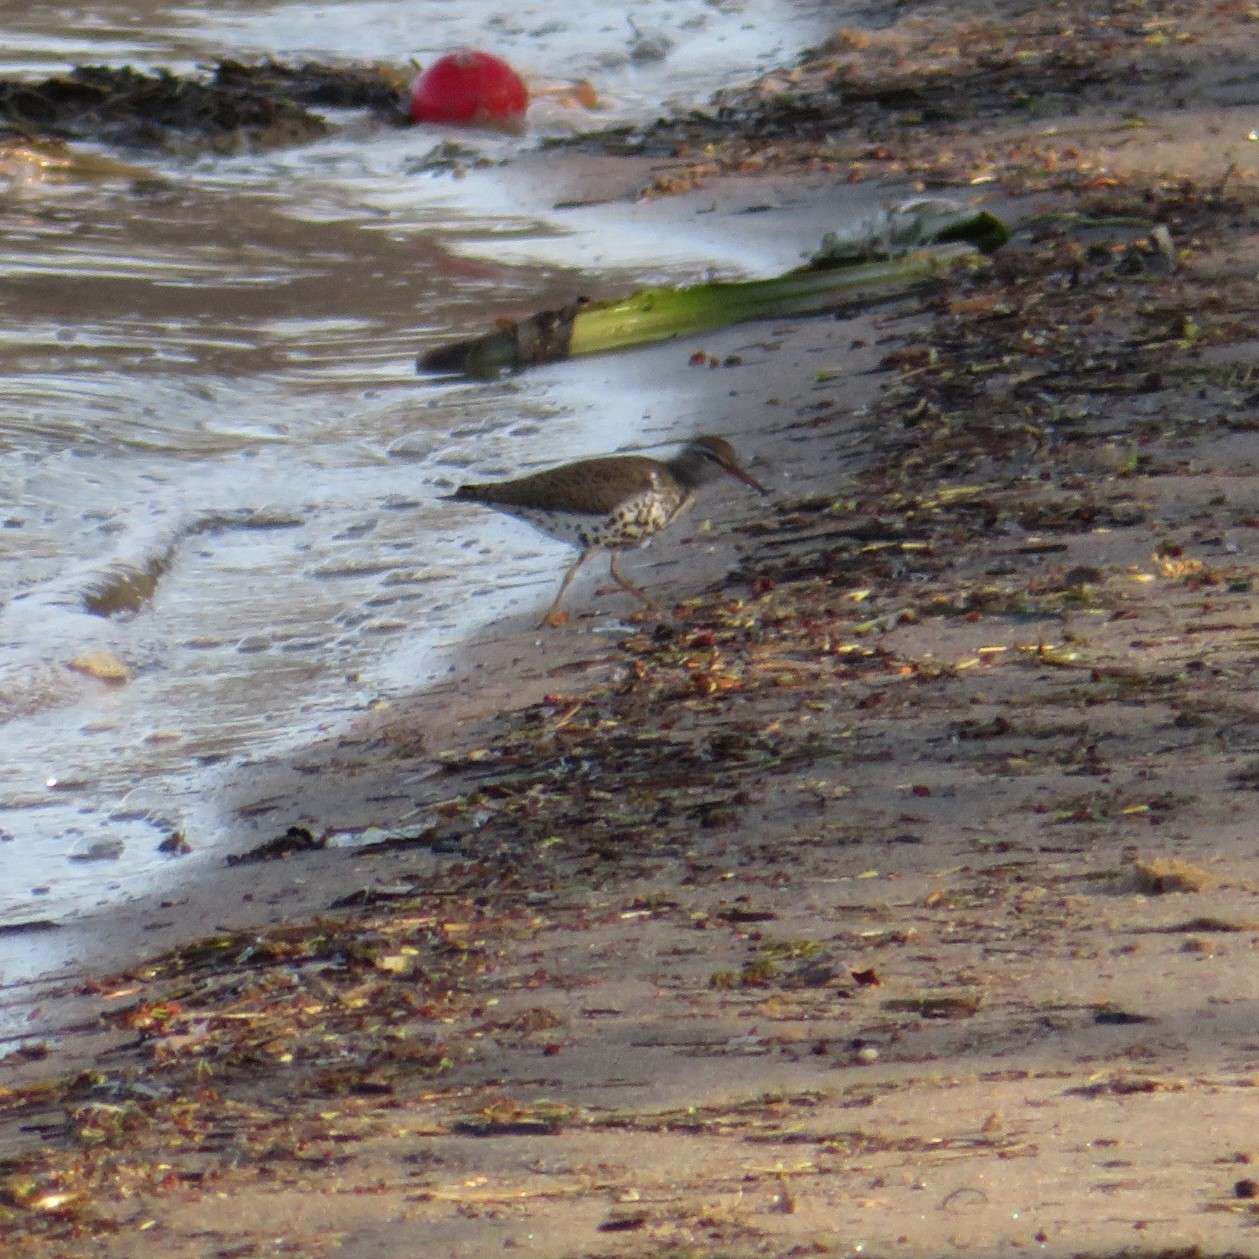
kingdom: Animalia
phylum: Chordata
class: Aves
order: Charadriiformes
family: Scolopacidae
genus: Actitis
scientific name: Actitis macularius
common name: Spotted sandpiper
